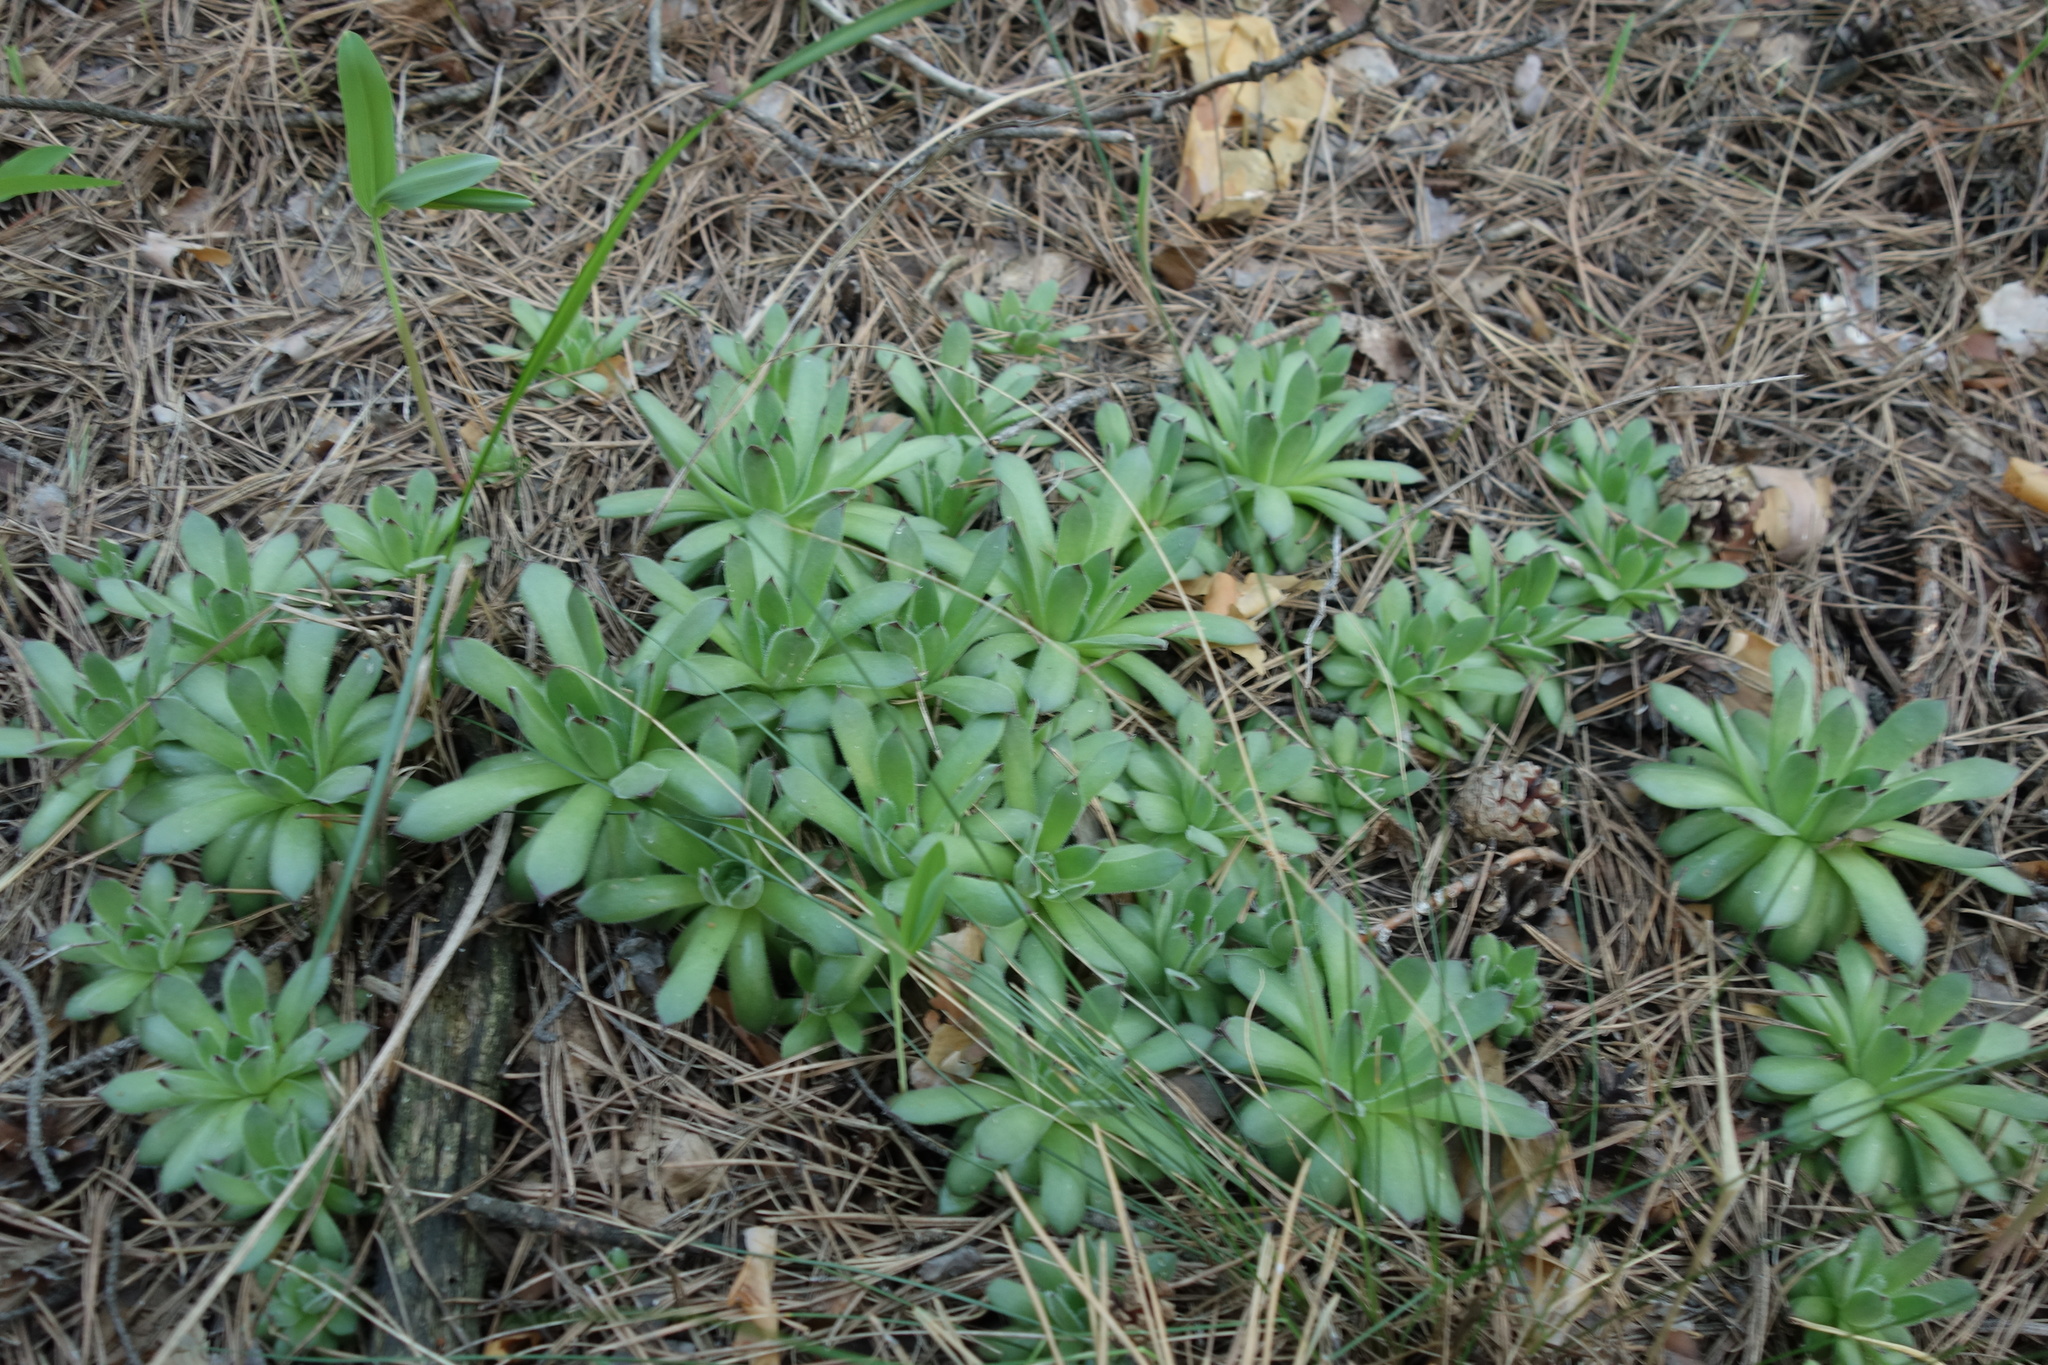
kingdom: Plantae
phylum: Tracheophyta
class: Magnoliopsida
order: Saxifragales
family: Crassulaceae
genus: Sempervivum
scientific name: Sempervivum ruthenicum
